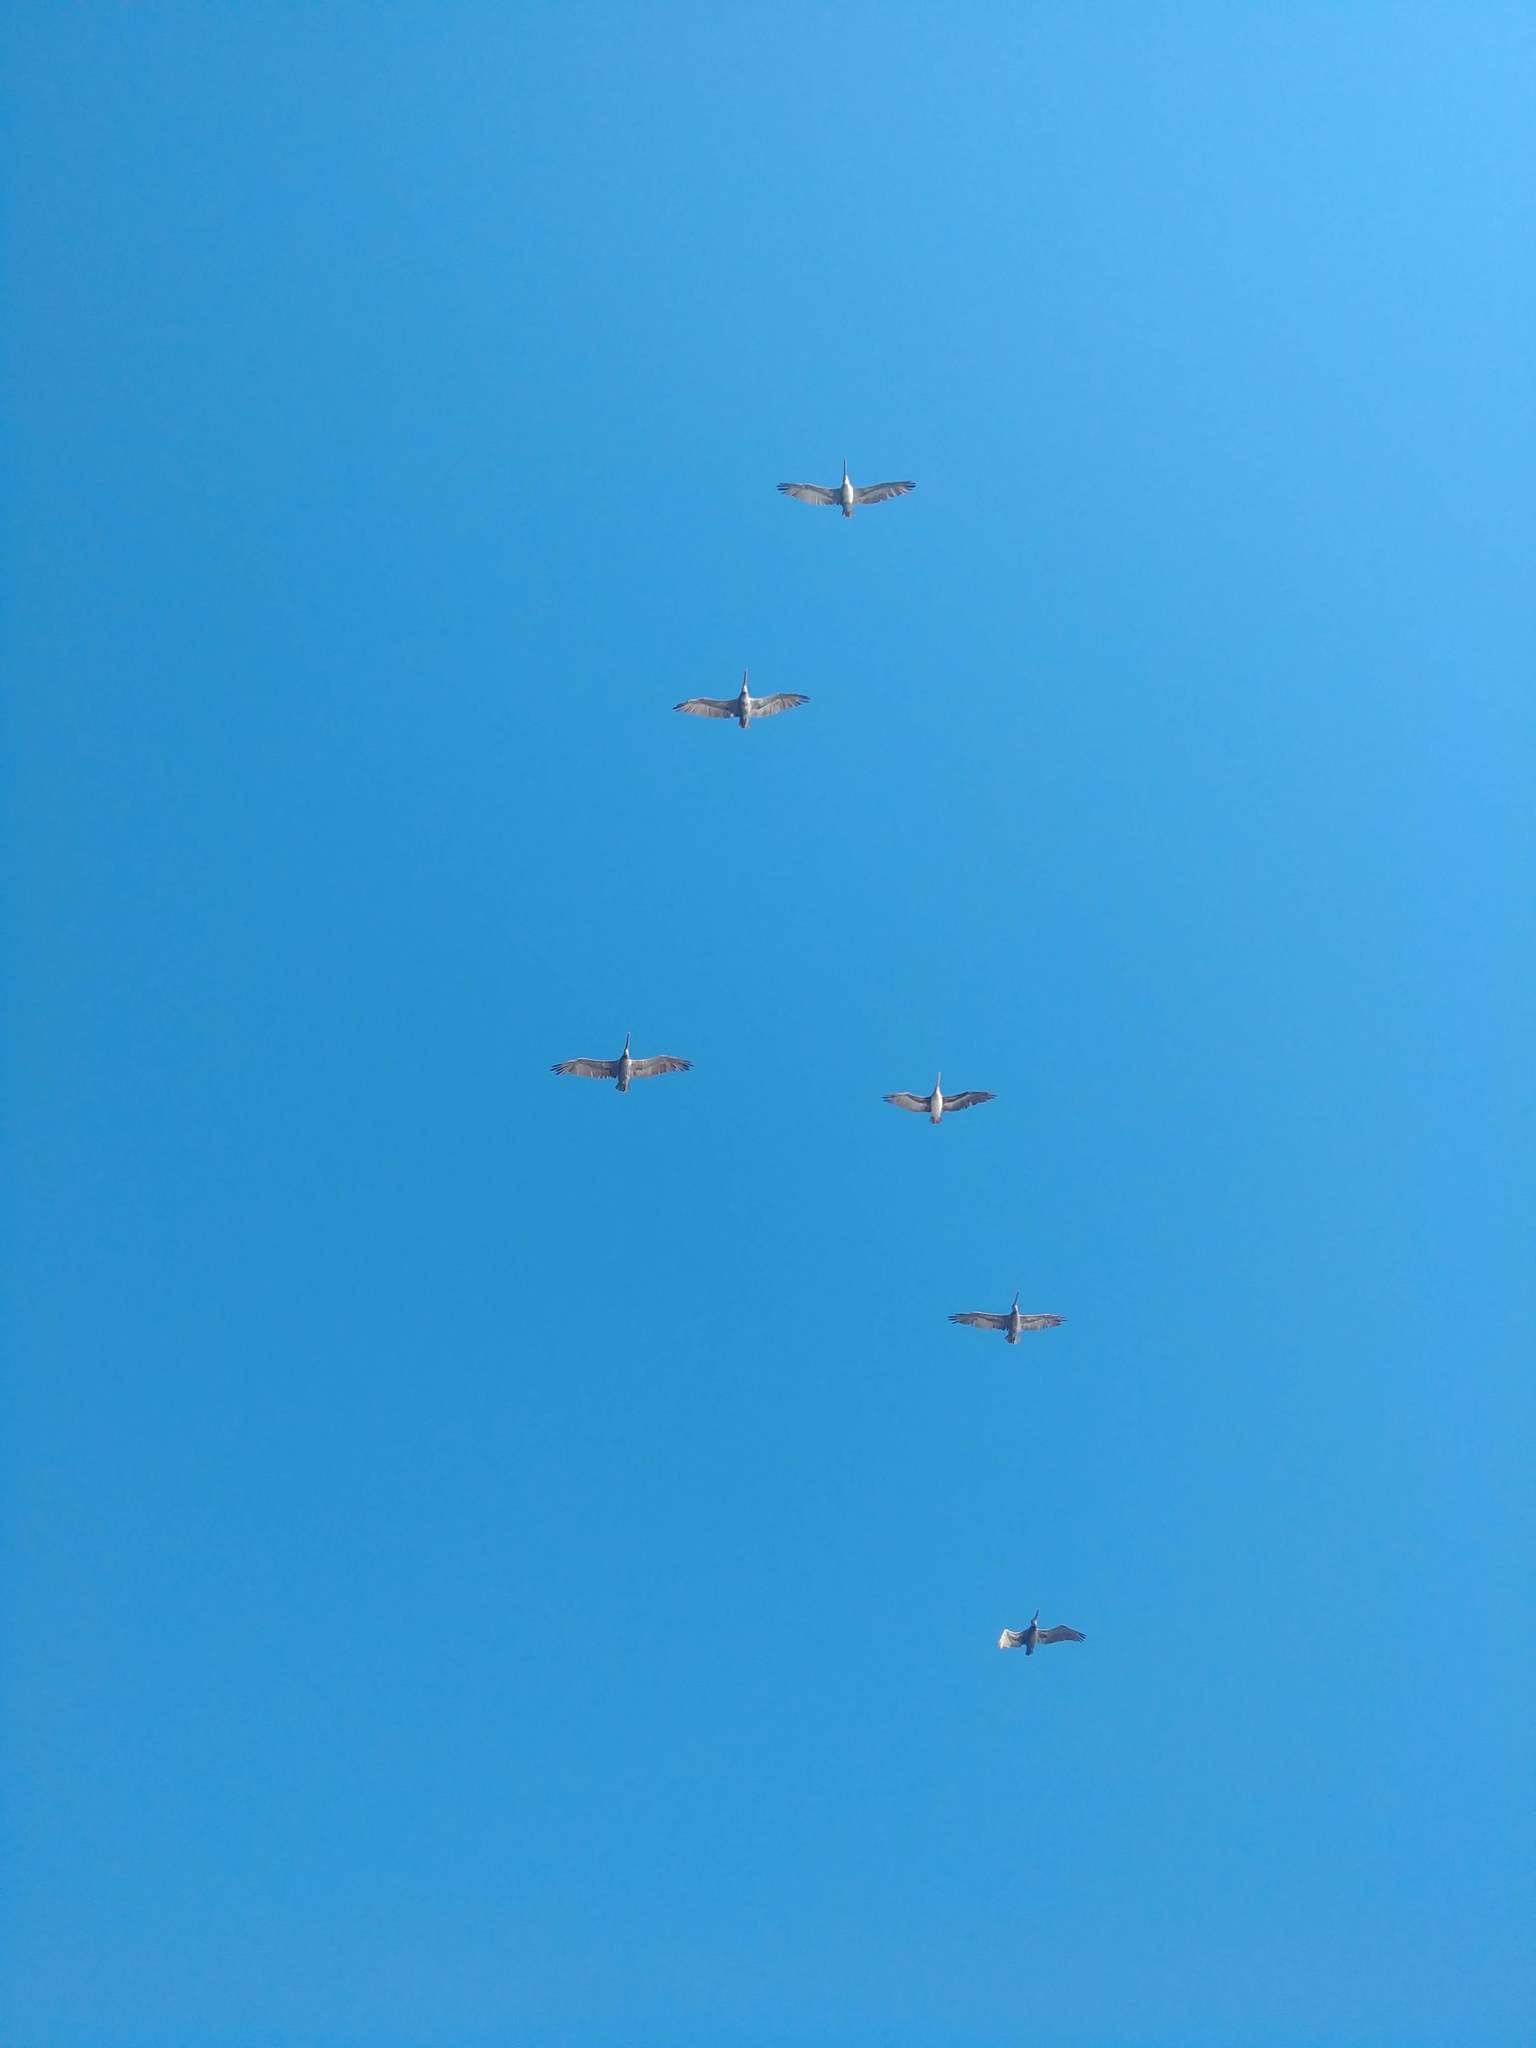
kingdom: Animalia
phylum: Chordata
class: Aves
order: Pelecaniformes
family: Pelecanidae
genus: Pelecanus
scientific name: Pelecanus occidentalis
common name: Brown pelican
